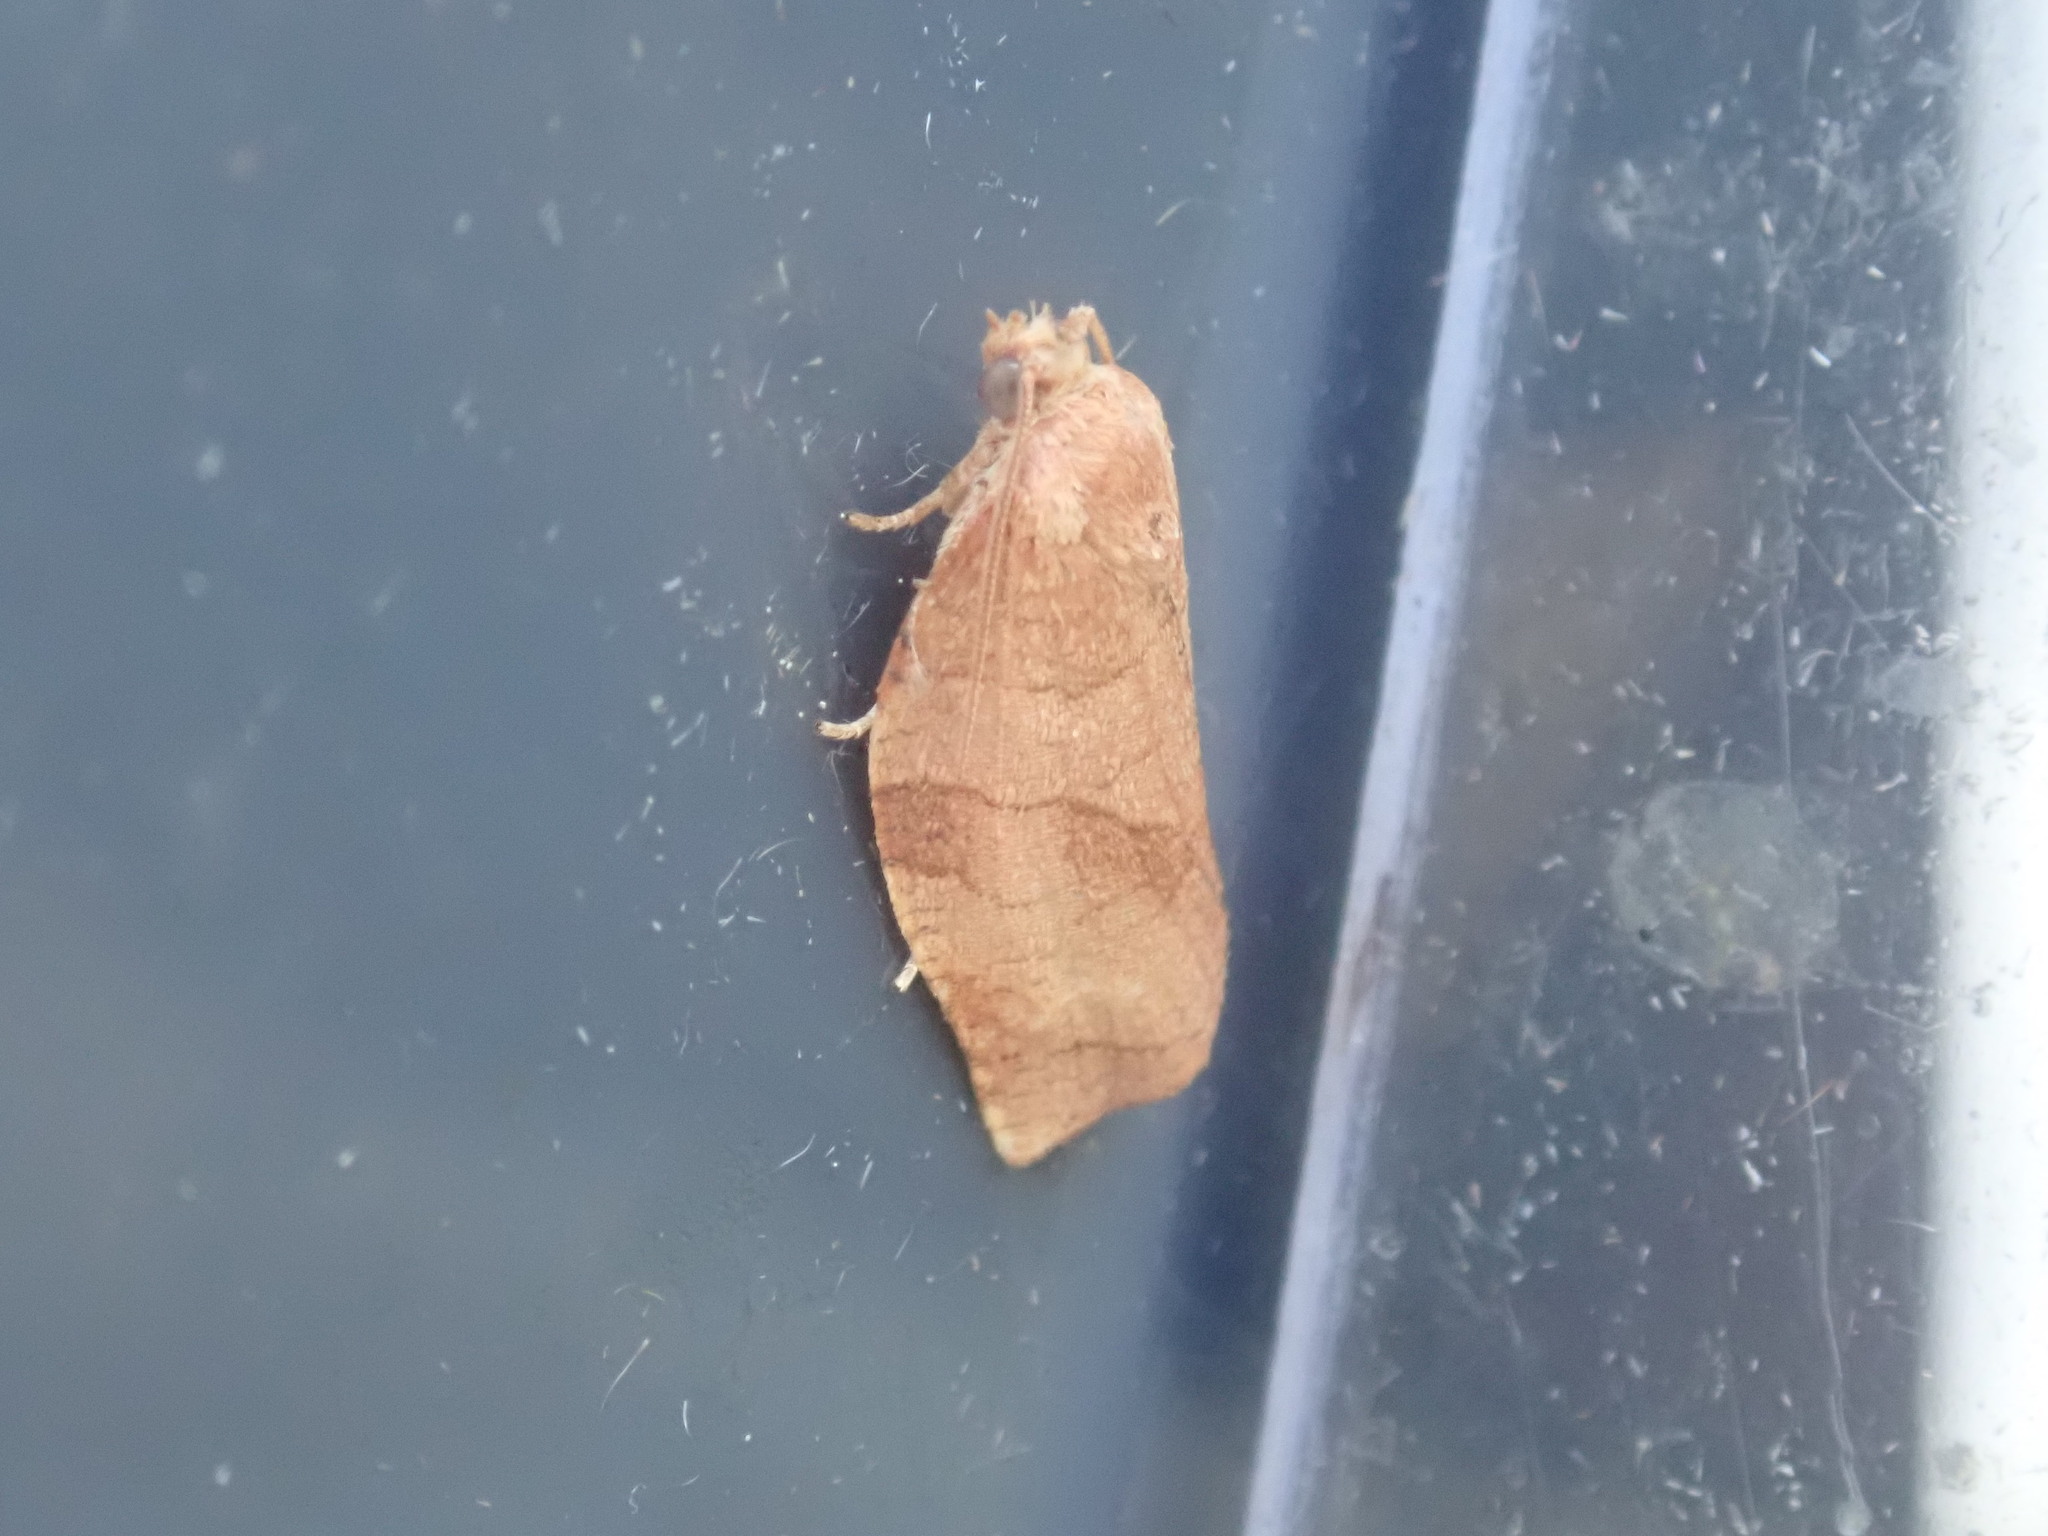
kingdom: Animalia
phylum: Arthropoda
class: Insecta
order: Lepidoptera
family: Tortricidae
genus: Choristoneura
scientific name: Choristoneura rosaceana
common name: Oblique-banded leafroller moth
